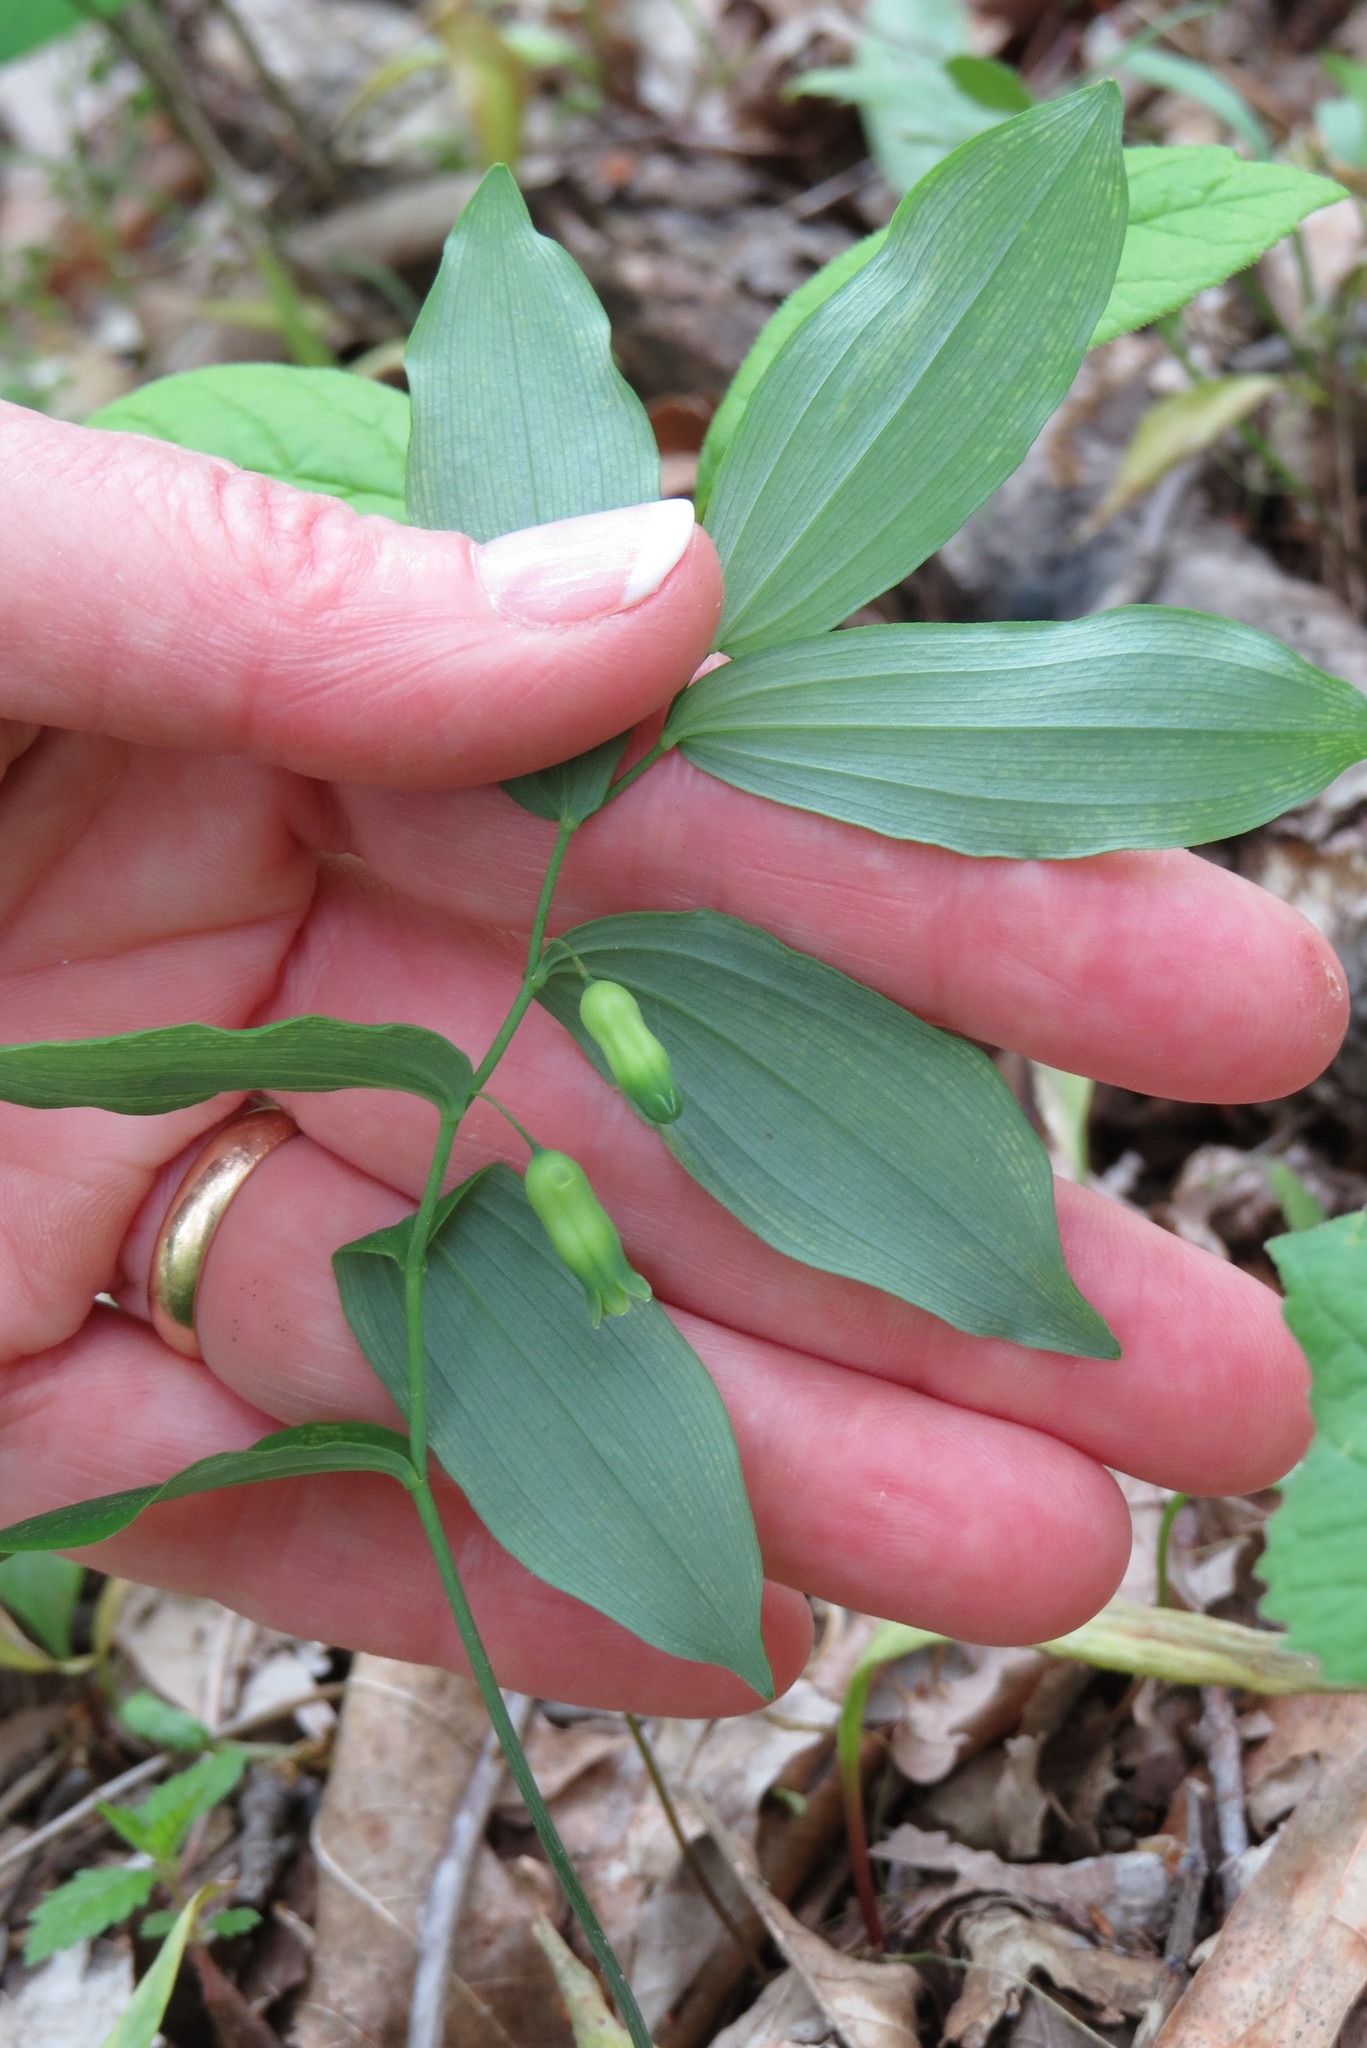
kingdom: Plantae
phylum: Tracheophyta
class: Liliopsida
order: Asparagales
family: Asparagaceae
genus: Polygonatum
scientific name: Polygonatum pubescens
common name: Downy solomon's seal
